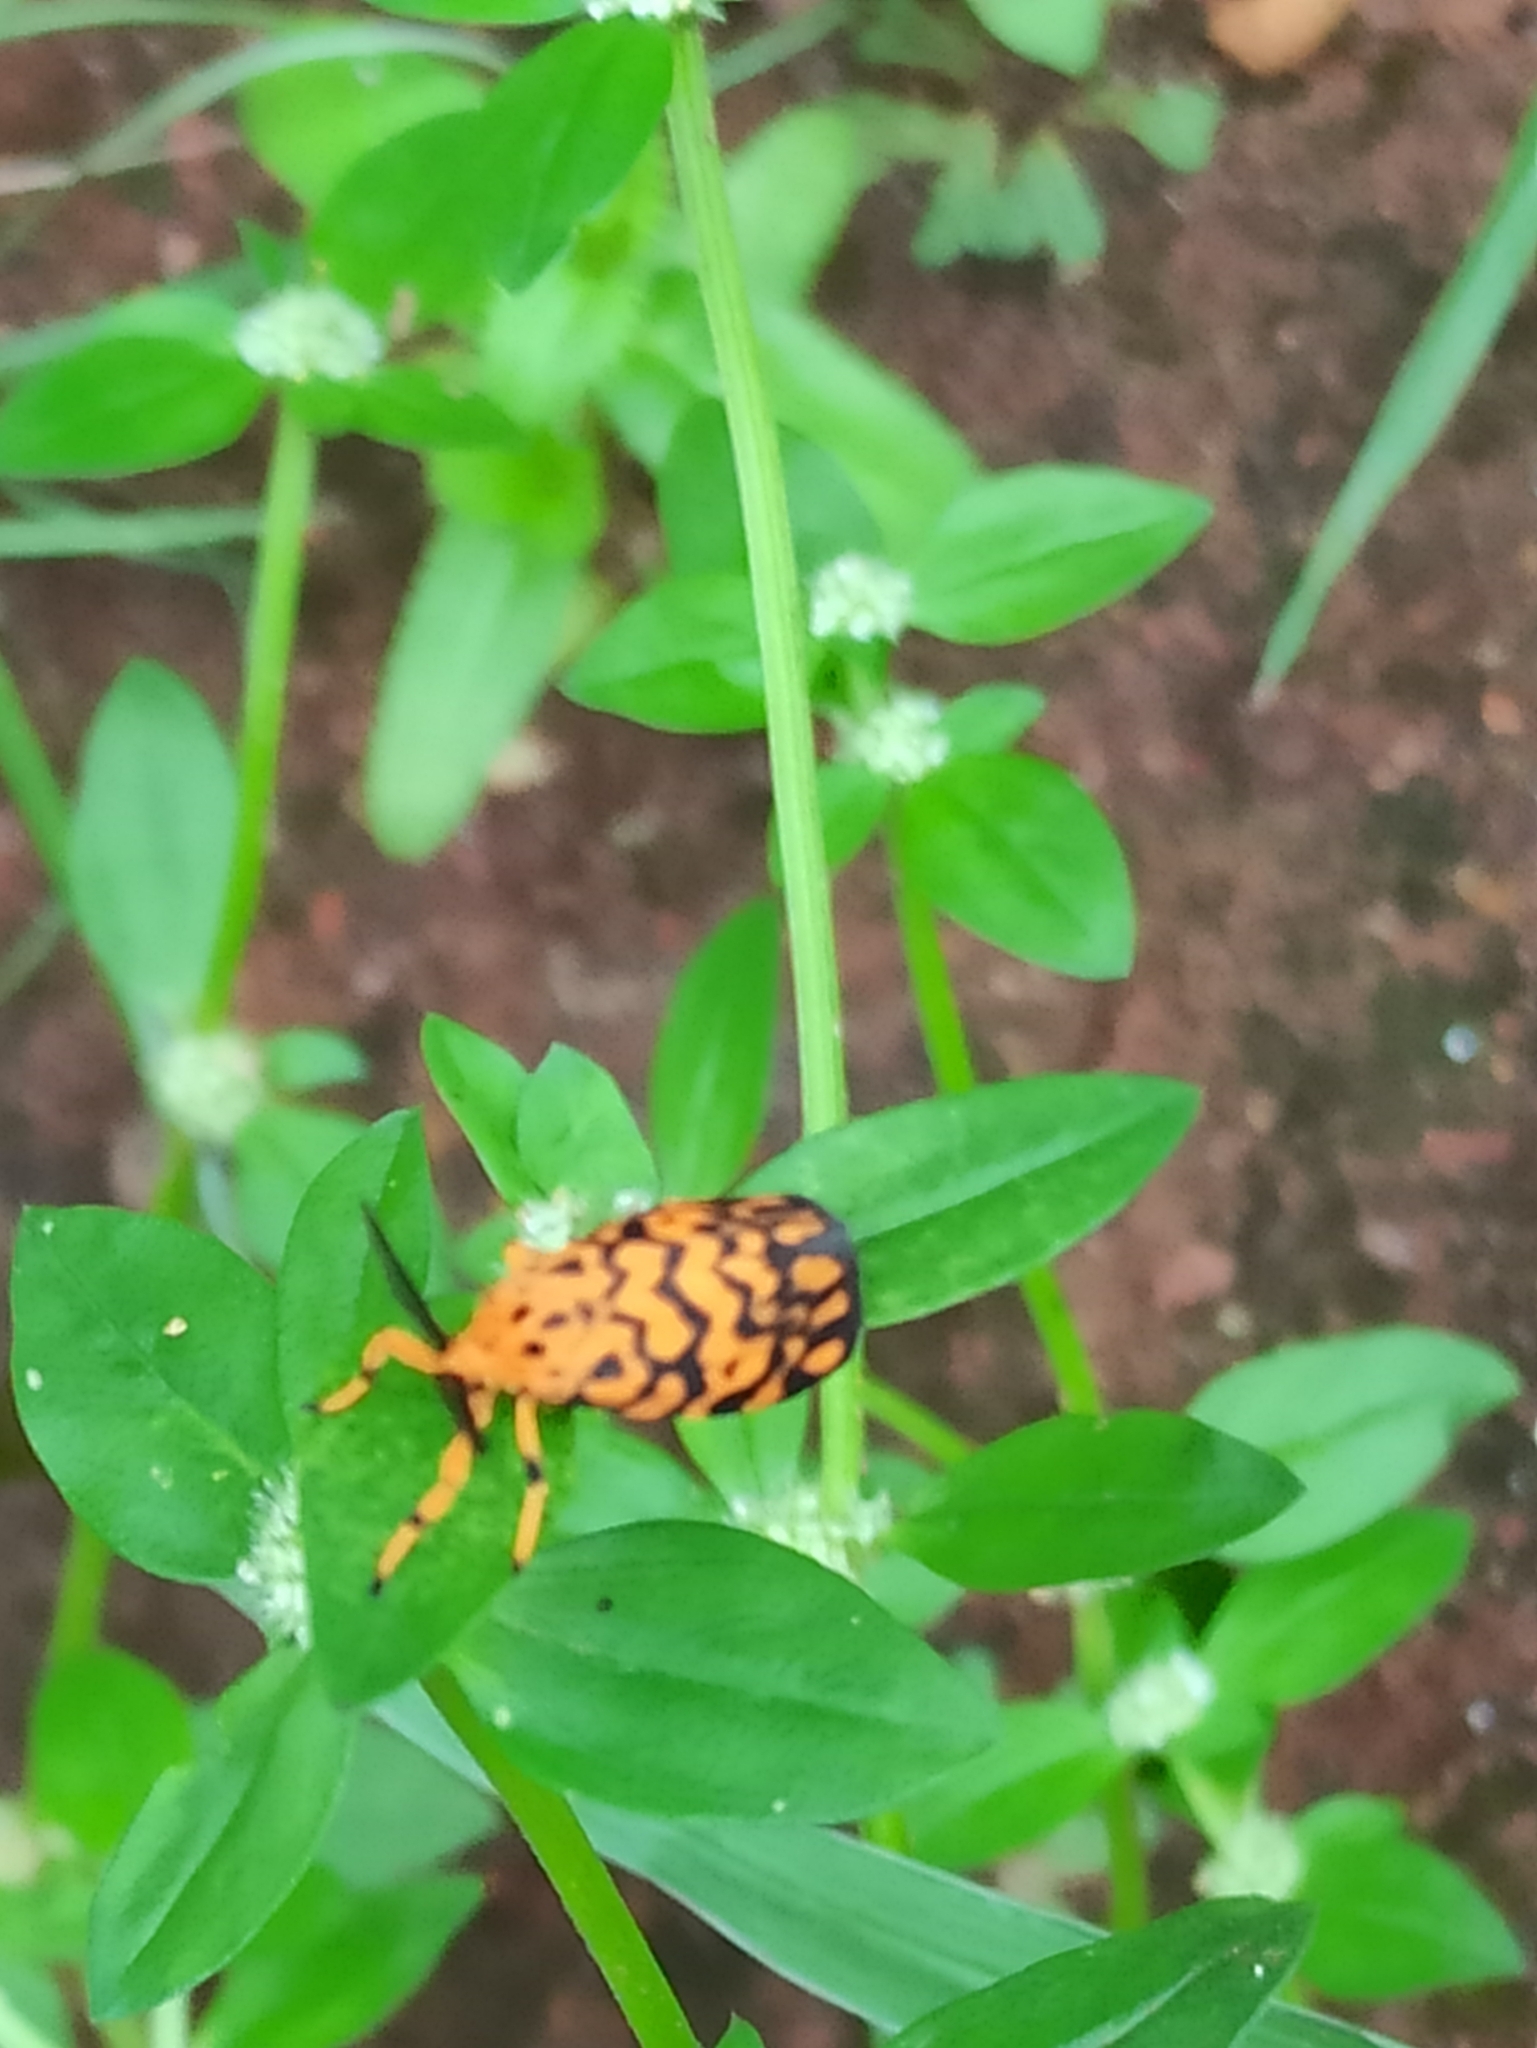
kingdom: Animalia
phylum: Arthropoda
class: Insecta
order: Lepidoptera
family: Erebidae
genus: Nepita
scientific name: Nepita conferta
